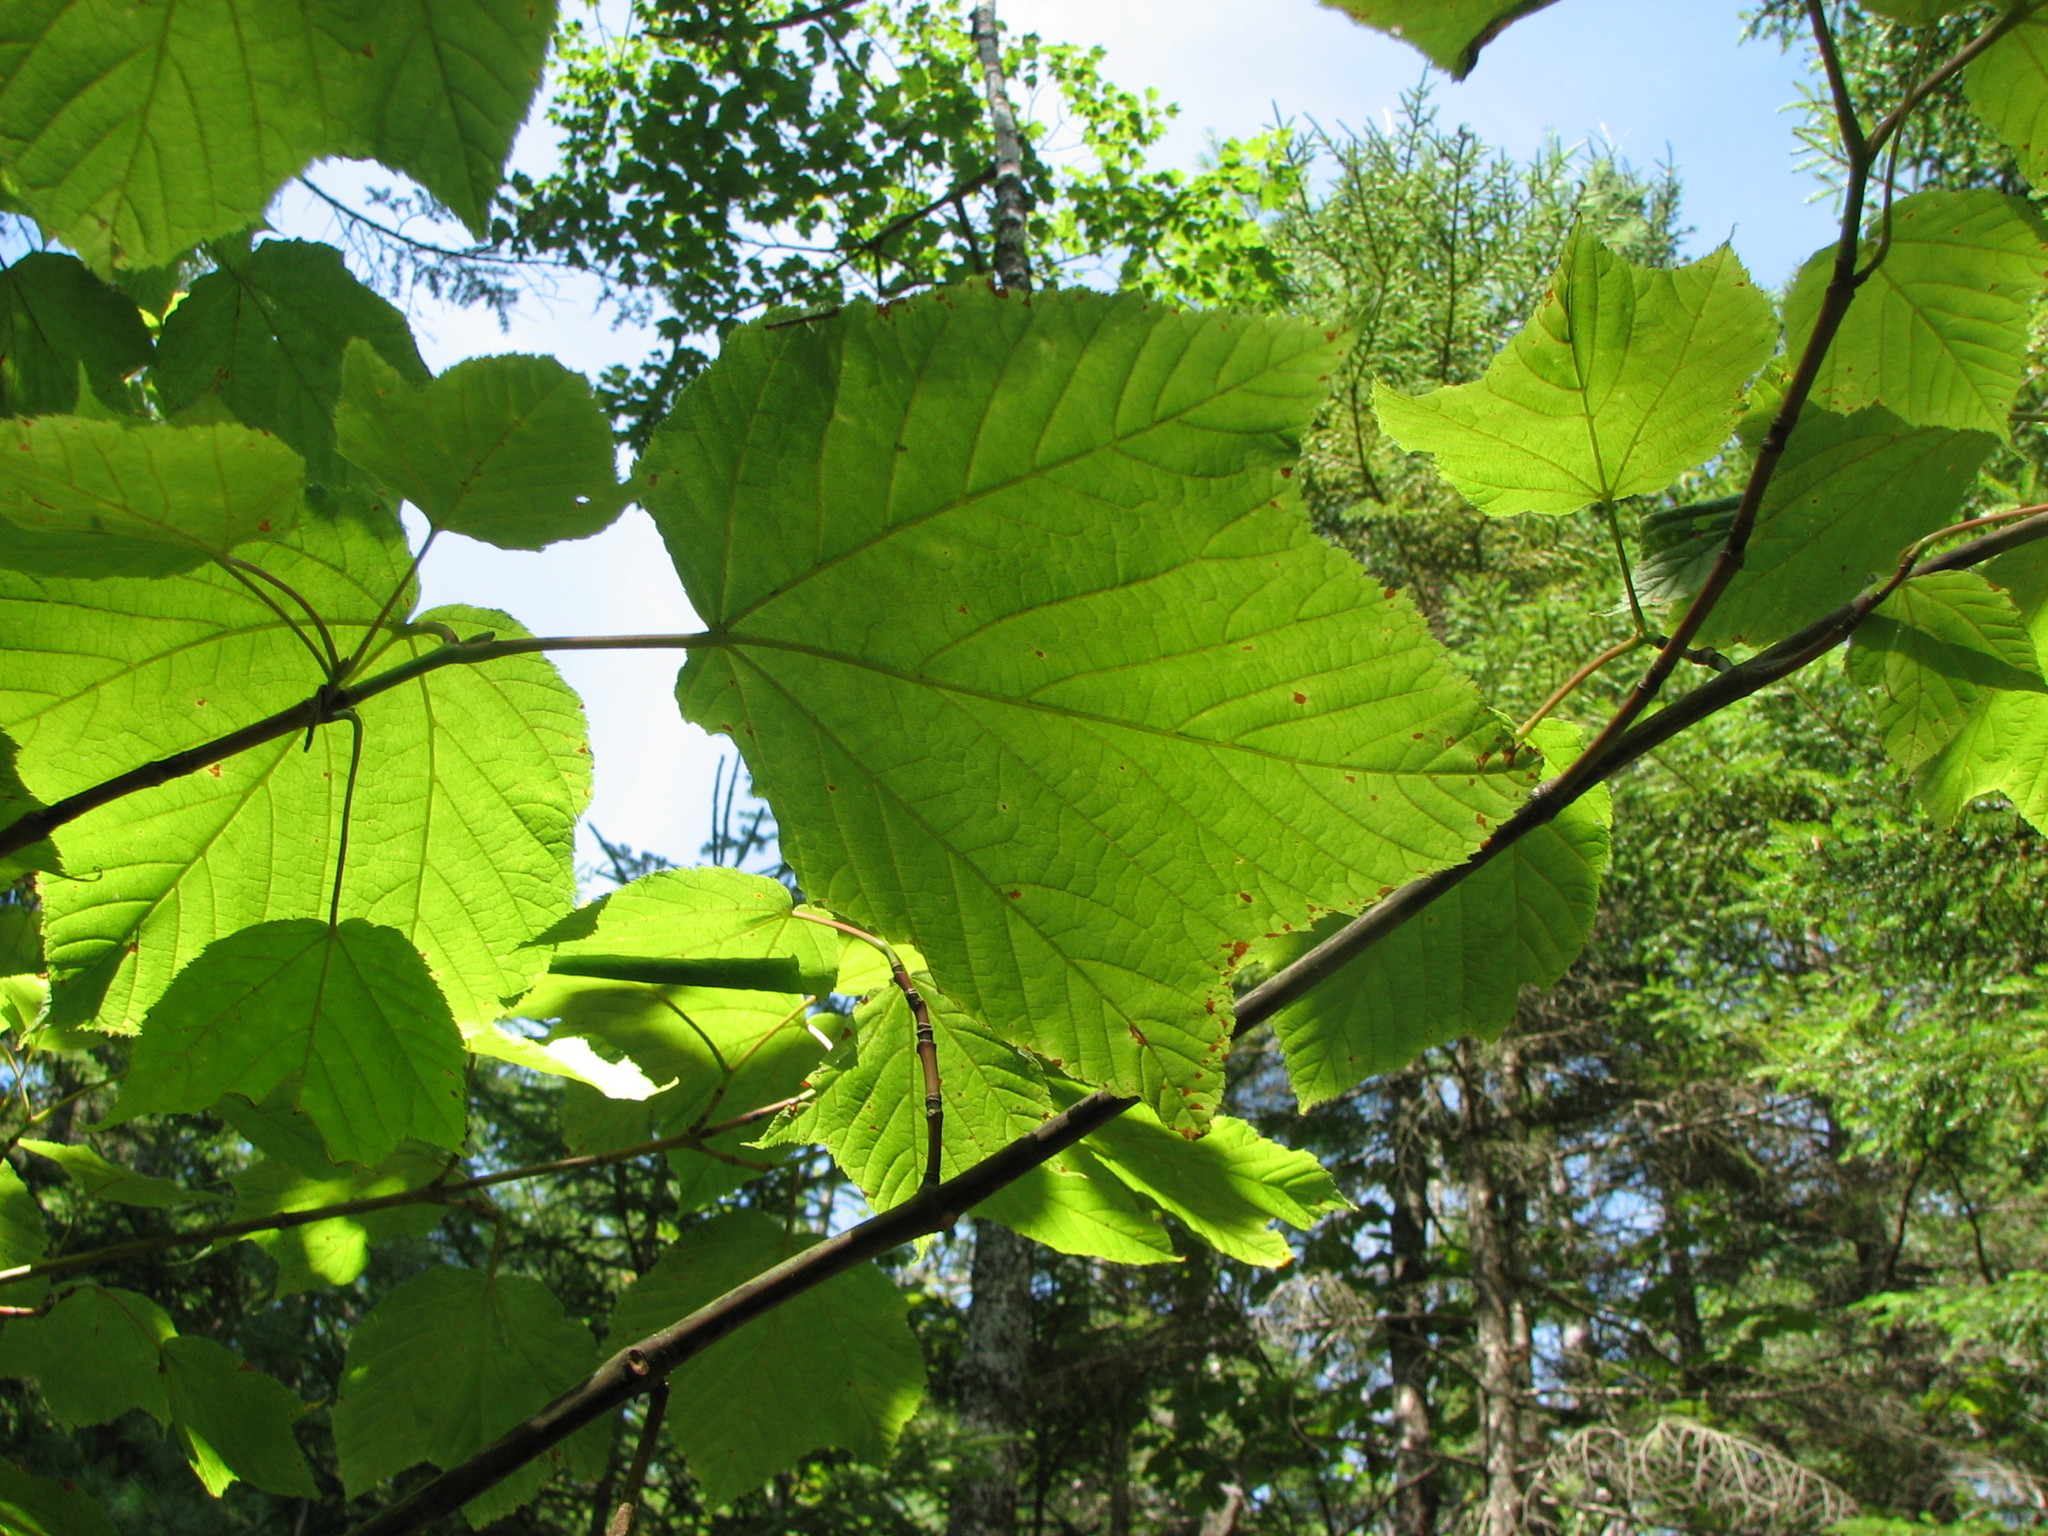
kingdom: Plantae
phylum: Tracheophyta
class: Magnoliopsida
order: Sapindales
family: Sapindaceae
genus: Acer
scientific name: Acer pensylvanicum
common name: Moosewood
